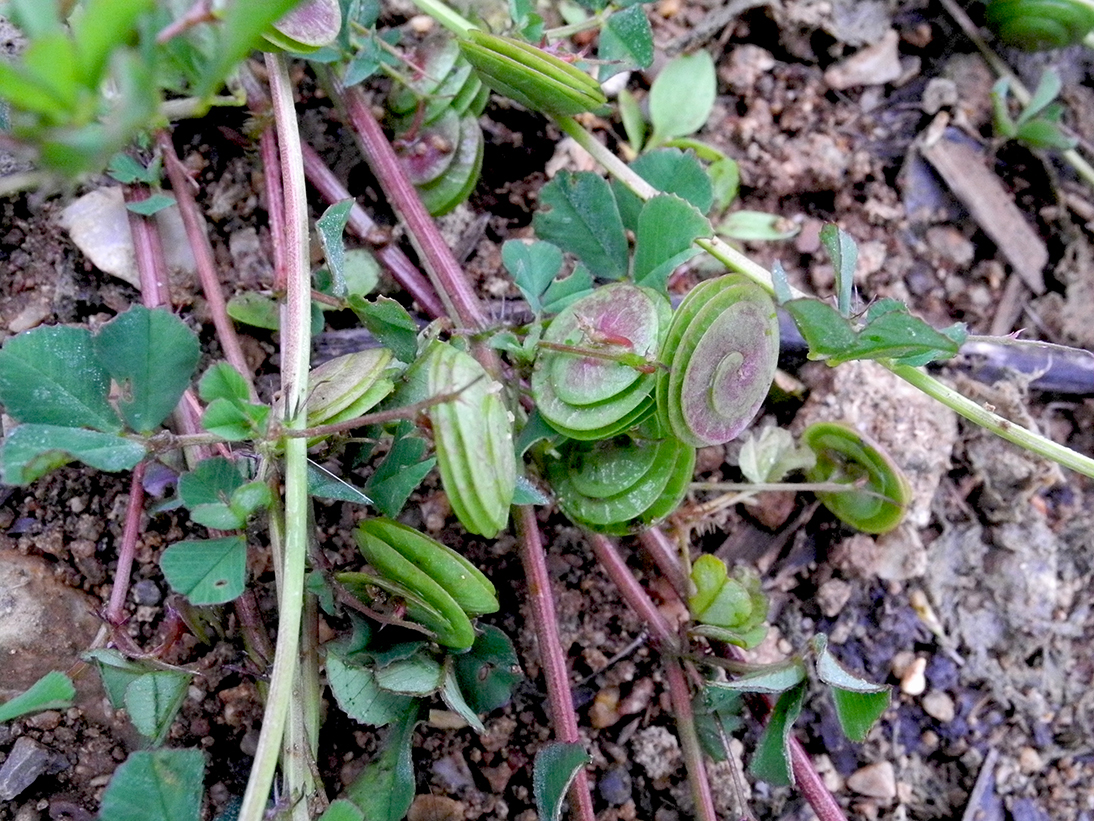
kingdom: Plantae
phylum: Tracheophyta
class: Magnoliopsida
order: Fabales
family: Fabaceae
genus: Medicago
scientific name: Medicago orbicularis
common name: Button medick
